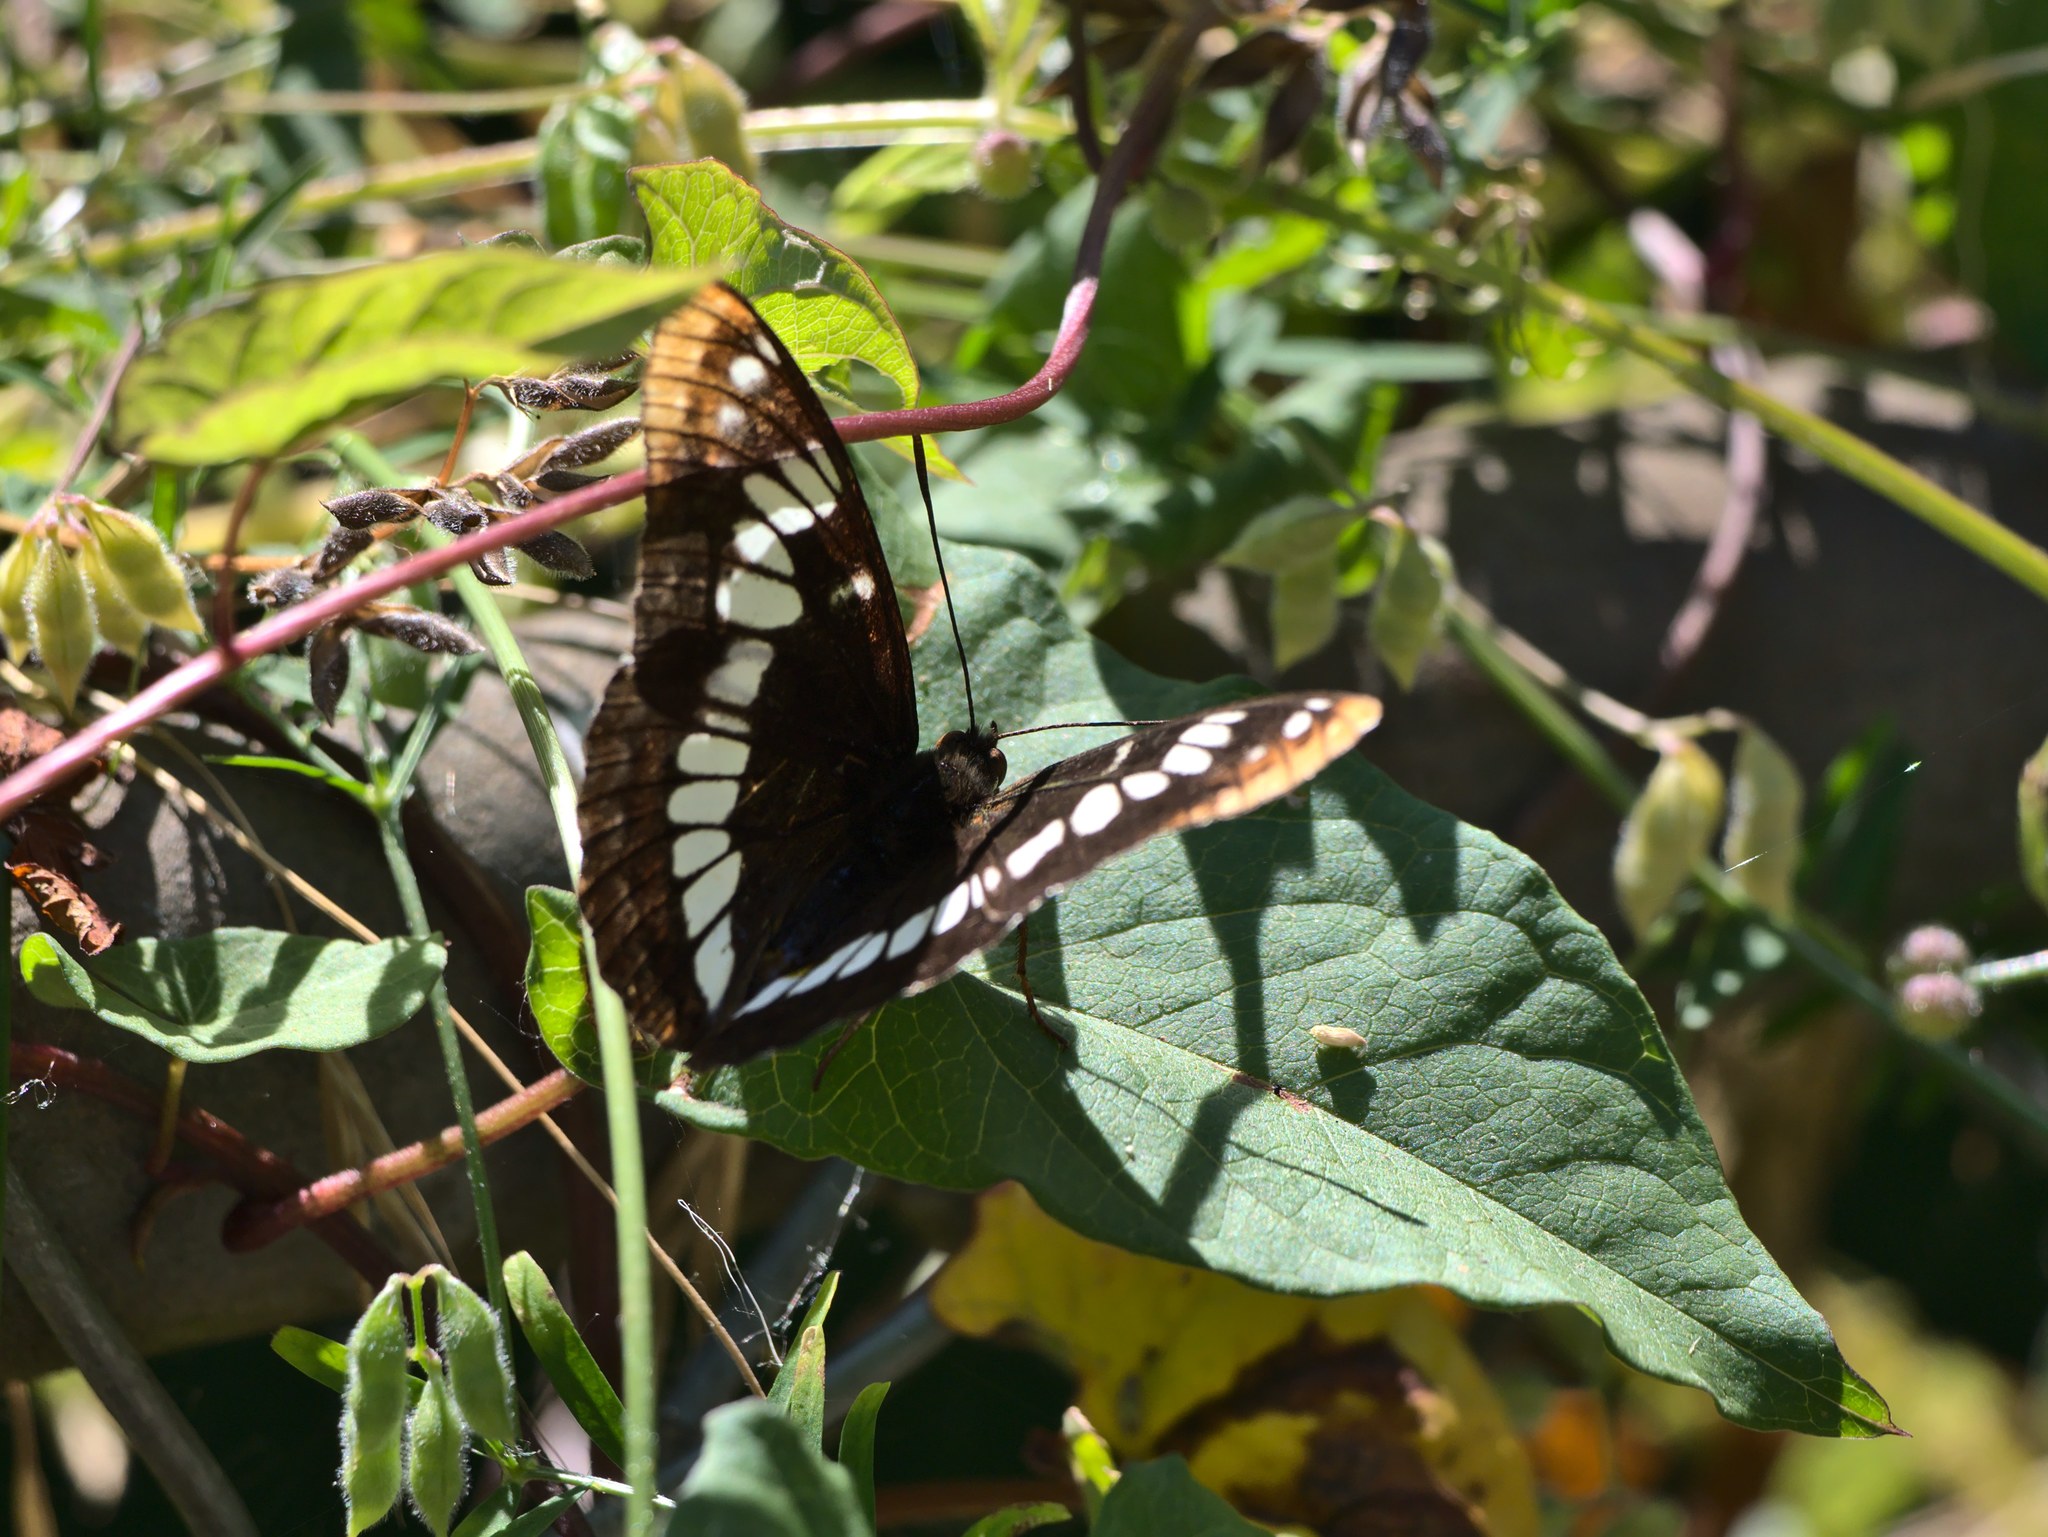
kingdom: Animalia
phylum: Arthropoda
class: Insecta
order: Lepidoptera
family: Nymphalidae
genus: Limenitis
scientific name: Limenitis lorquini
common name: Lorquin's admiral
